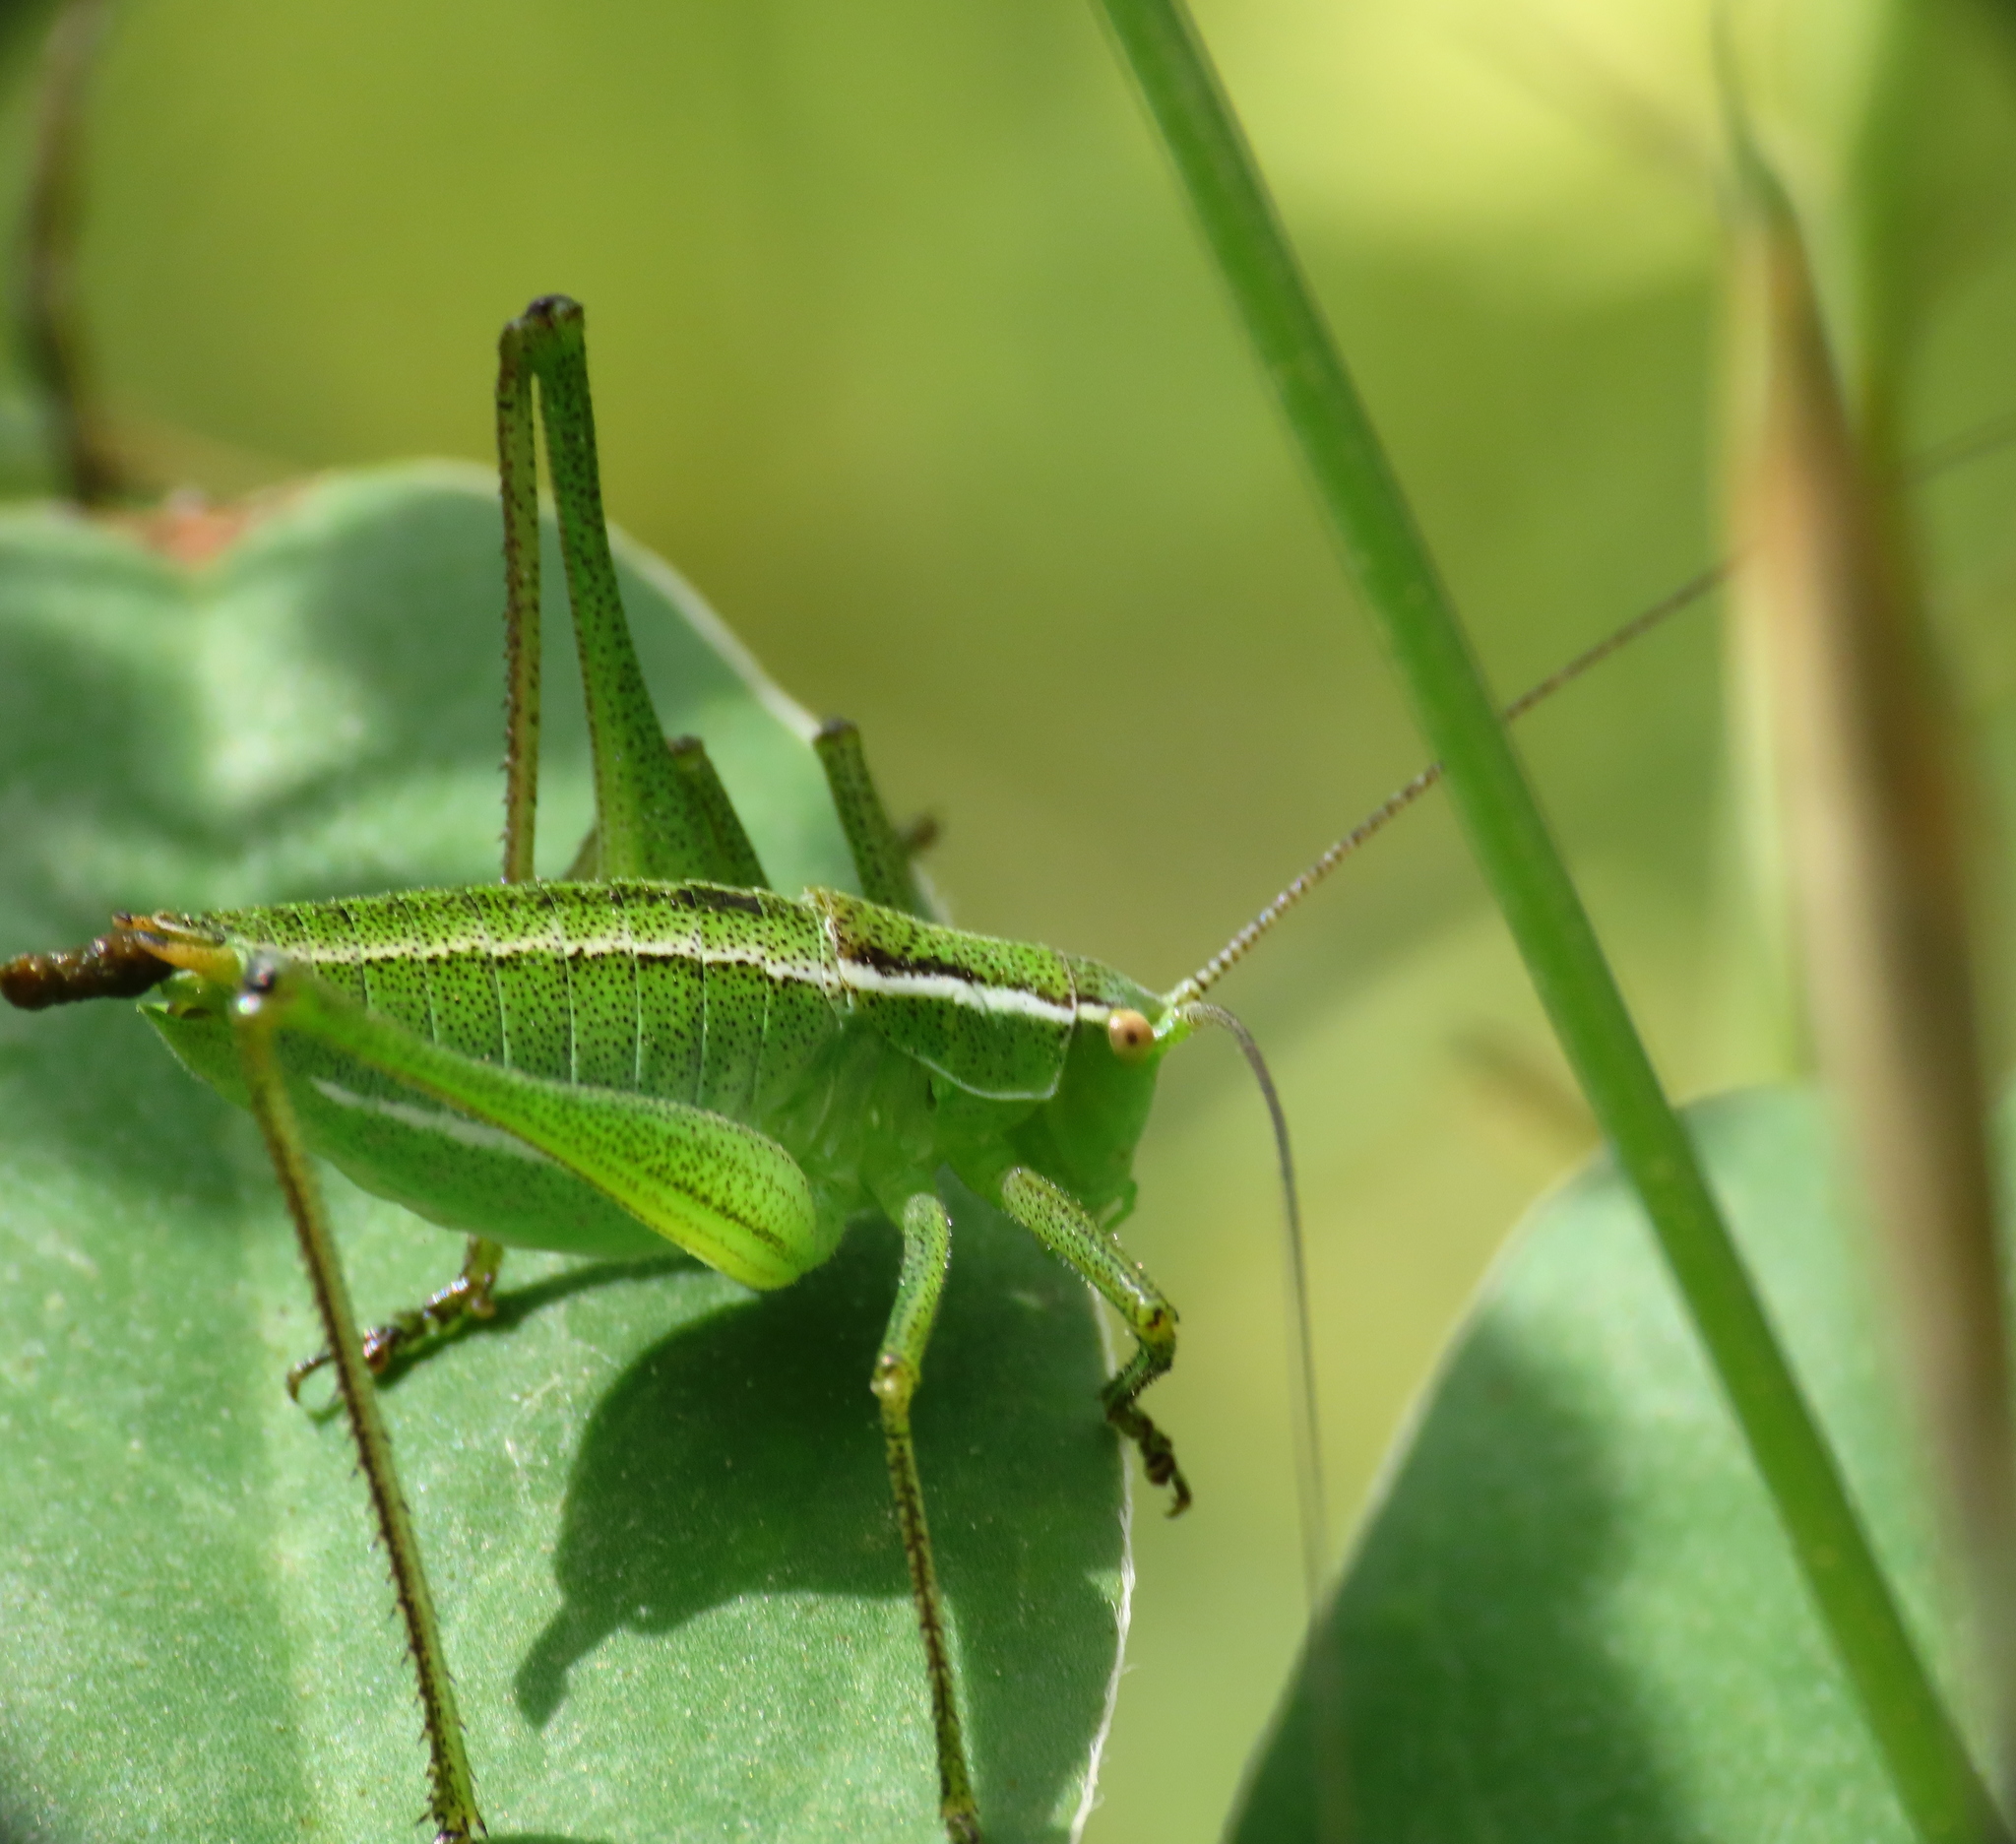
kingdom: Animalia
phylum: Arthropoda
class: Insecta
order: Orthoptera
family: Tettigoniidae
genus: Poecilimon
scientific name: Poecilimon superbus
